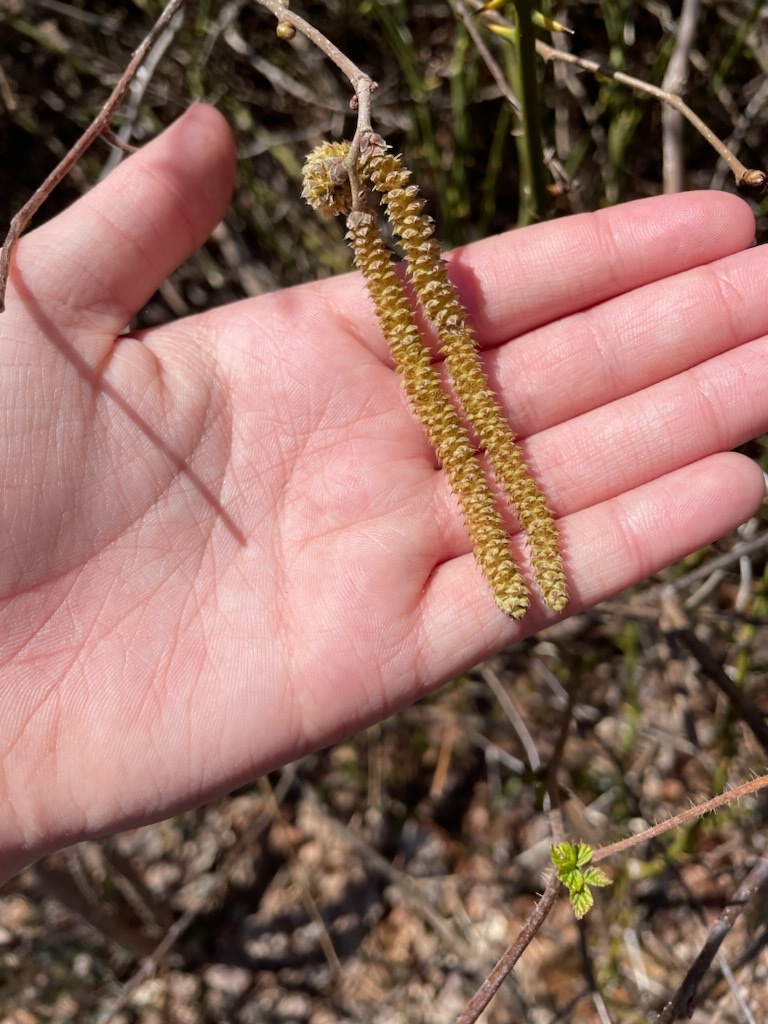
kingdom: Plantae
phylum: Tracheophyta
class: Magnoliopsida
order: Fagales
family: Betulaceae
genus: Corylus
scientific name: Corylus americana
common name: American hazel
